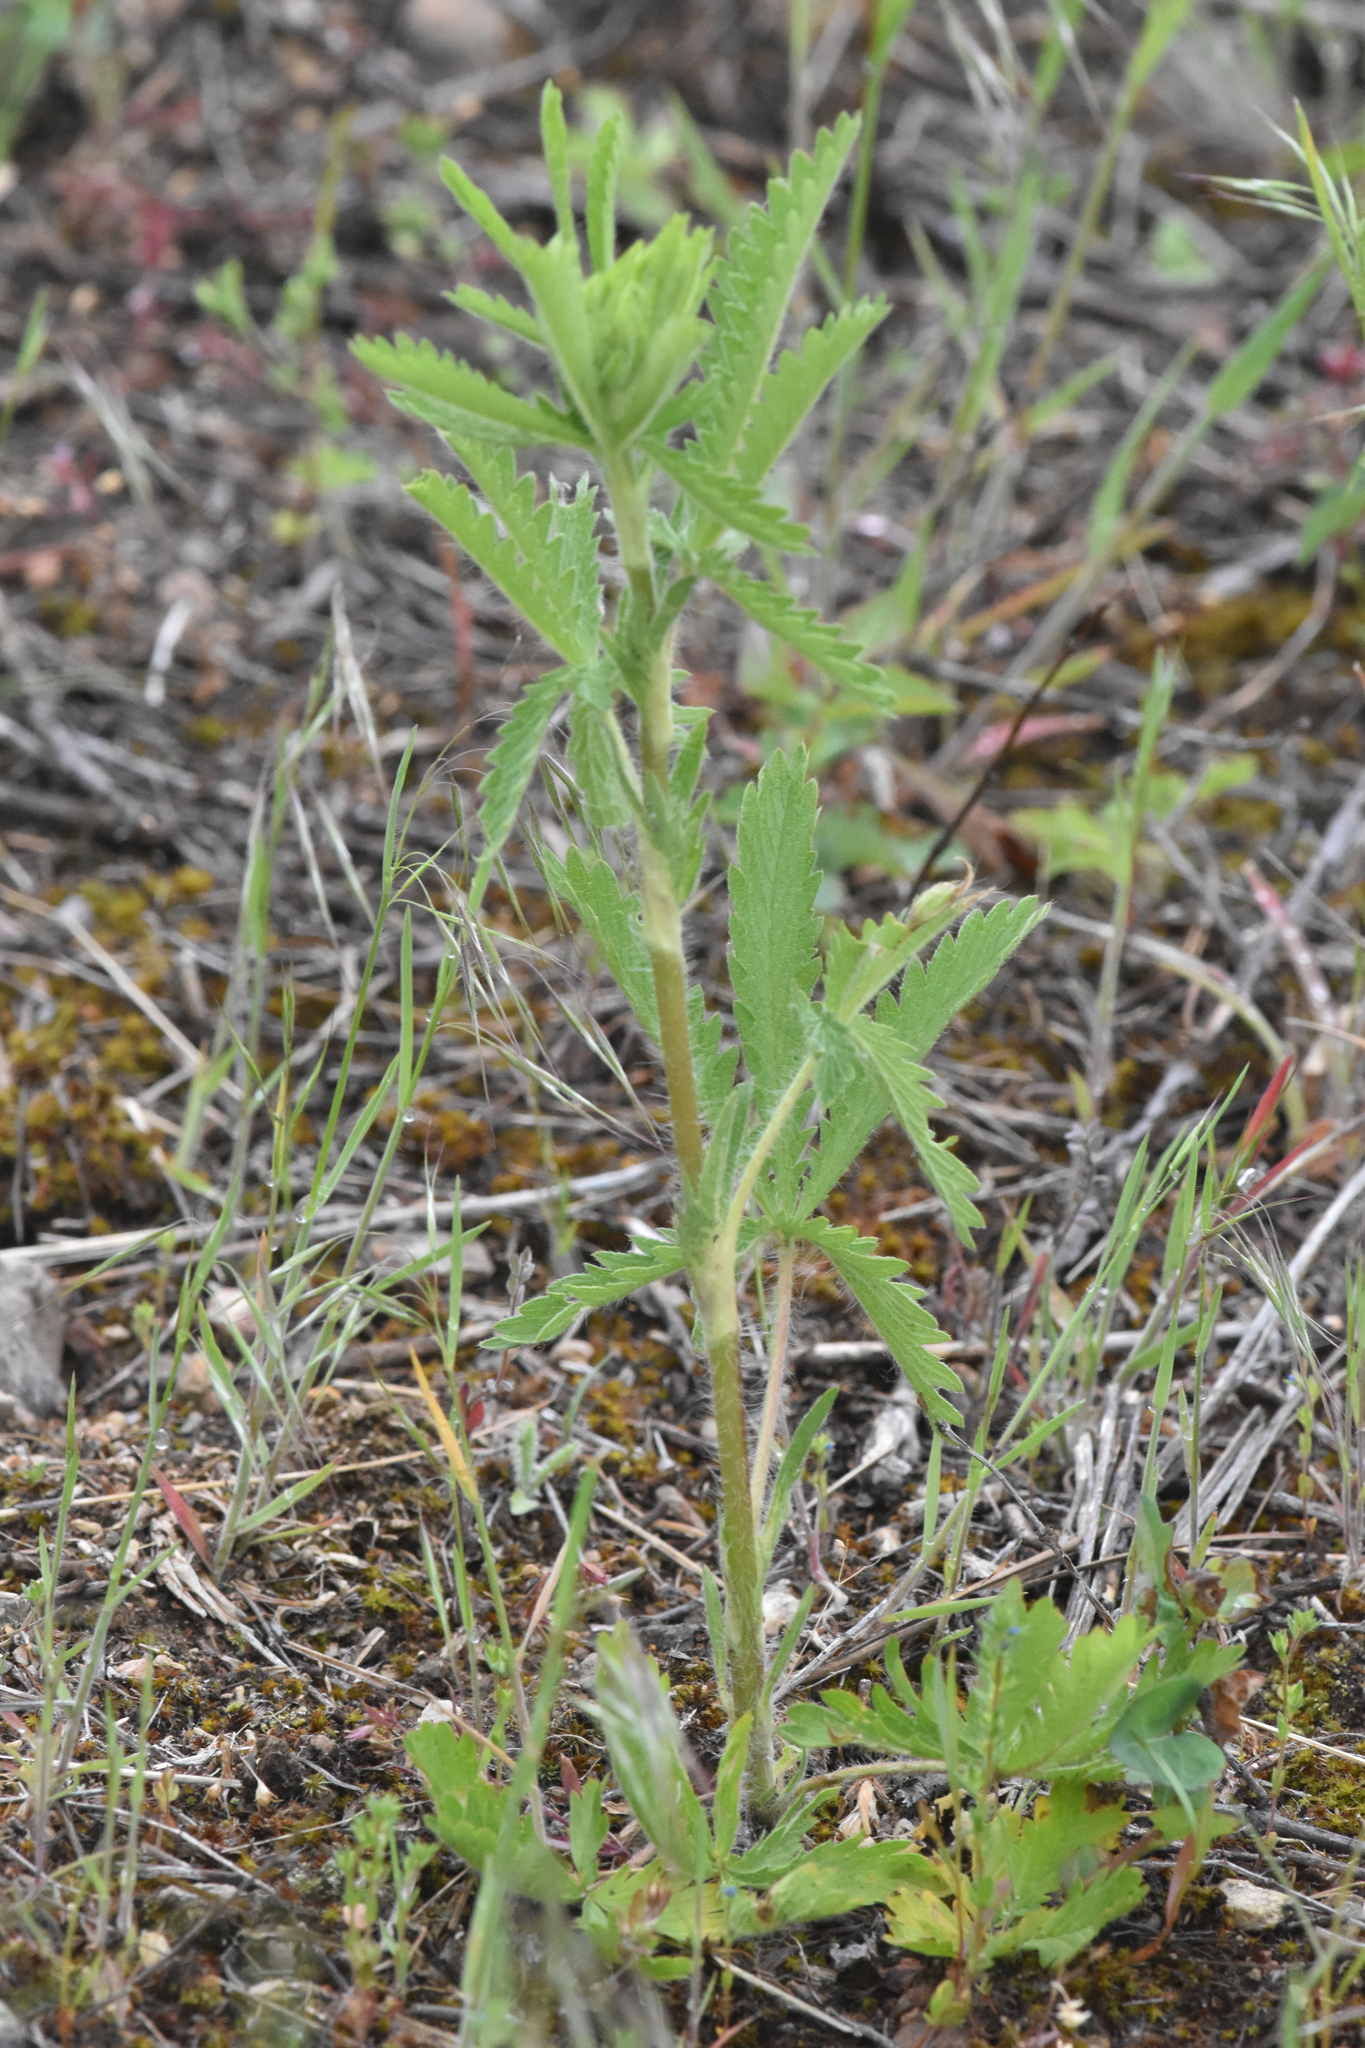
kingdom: Plantae
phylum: Tracheophyta
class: Magnoliopsida
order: Rosales
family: Rosaceae
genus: Potentilla
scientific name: Potentilla recta
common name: Sulphur cinquefoil
